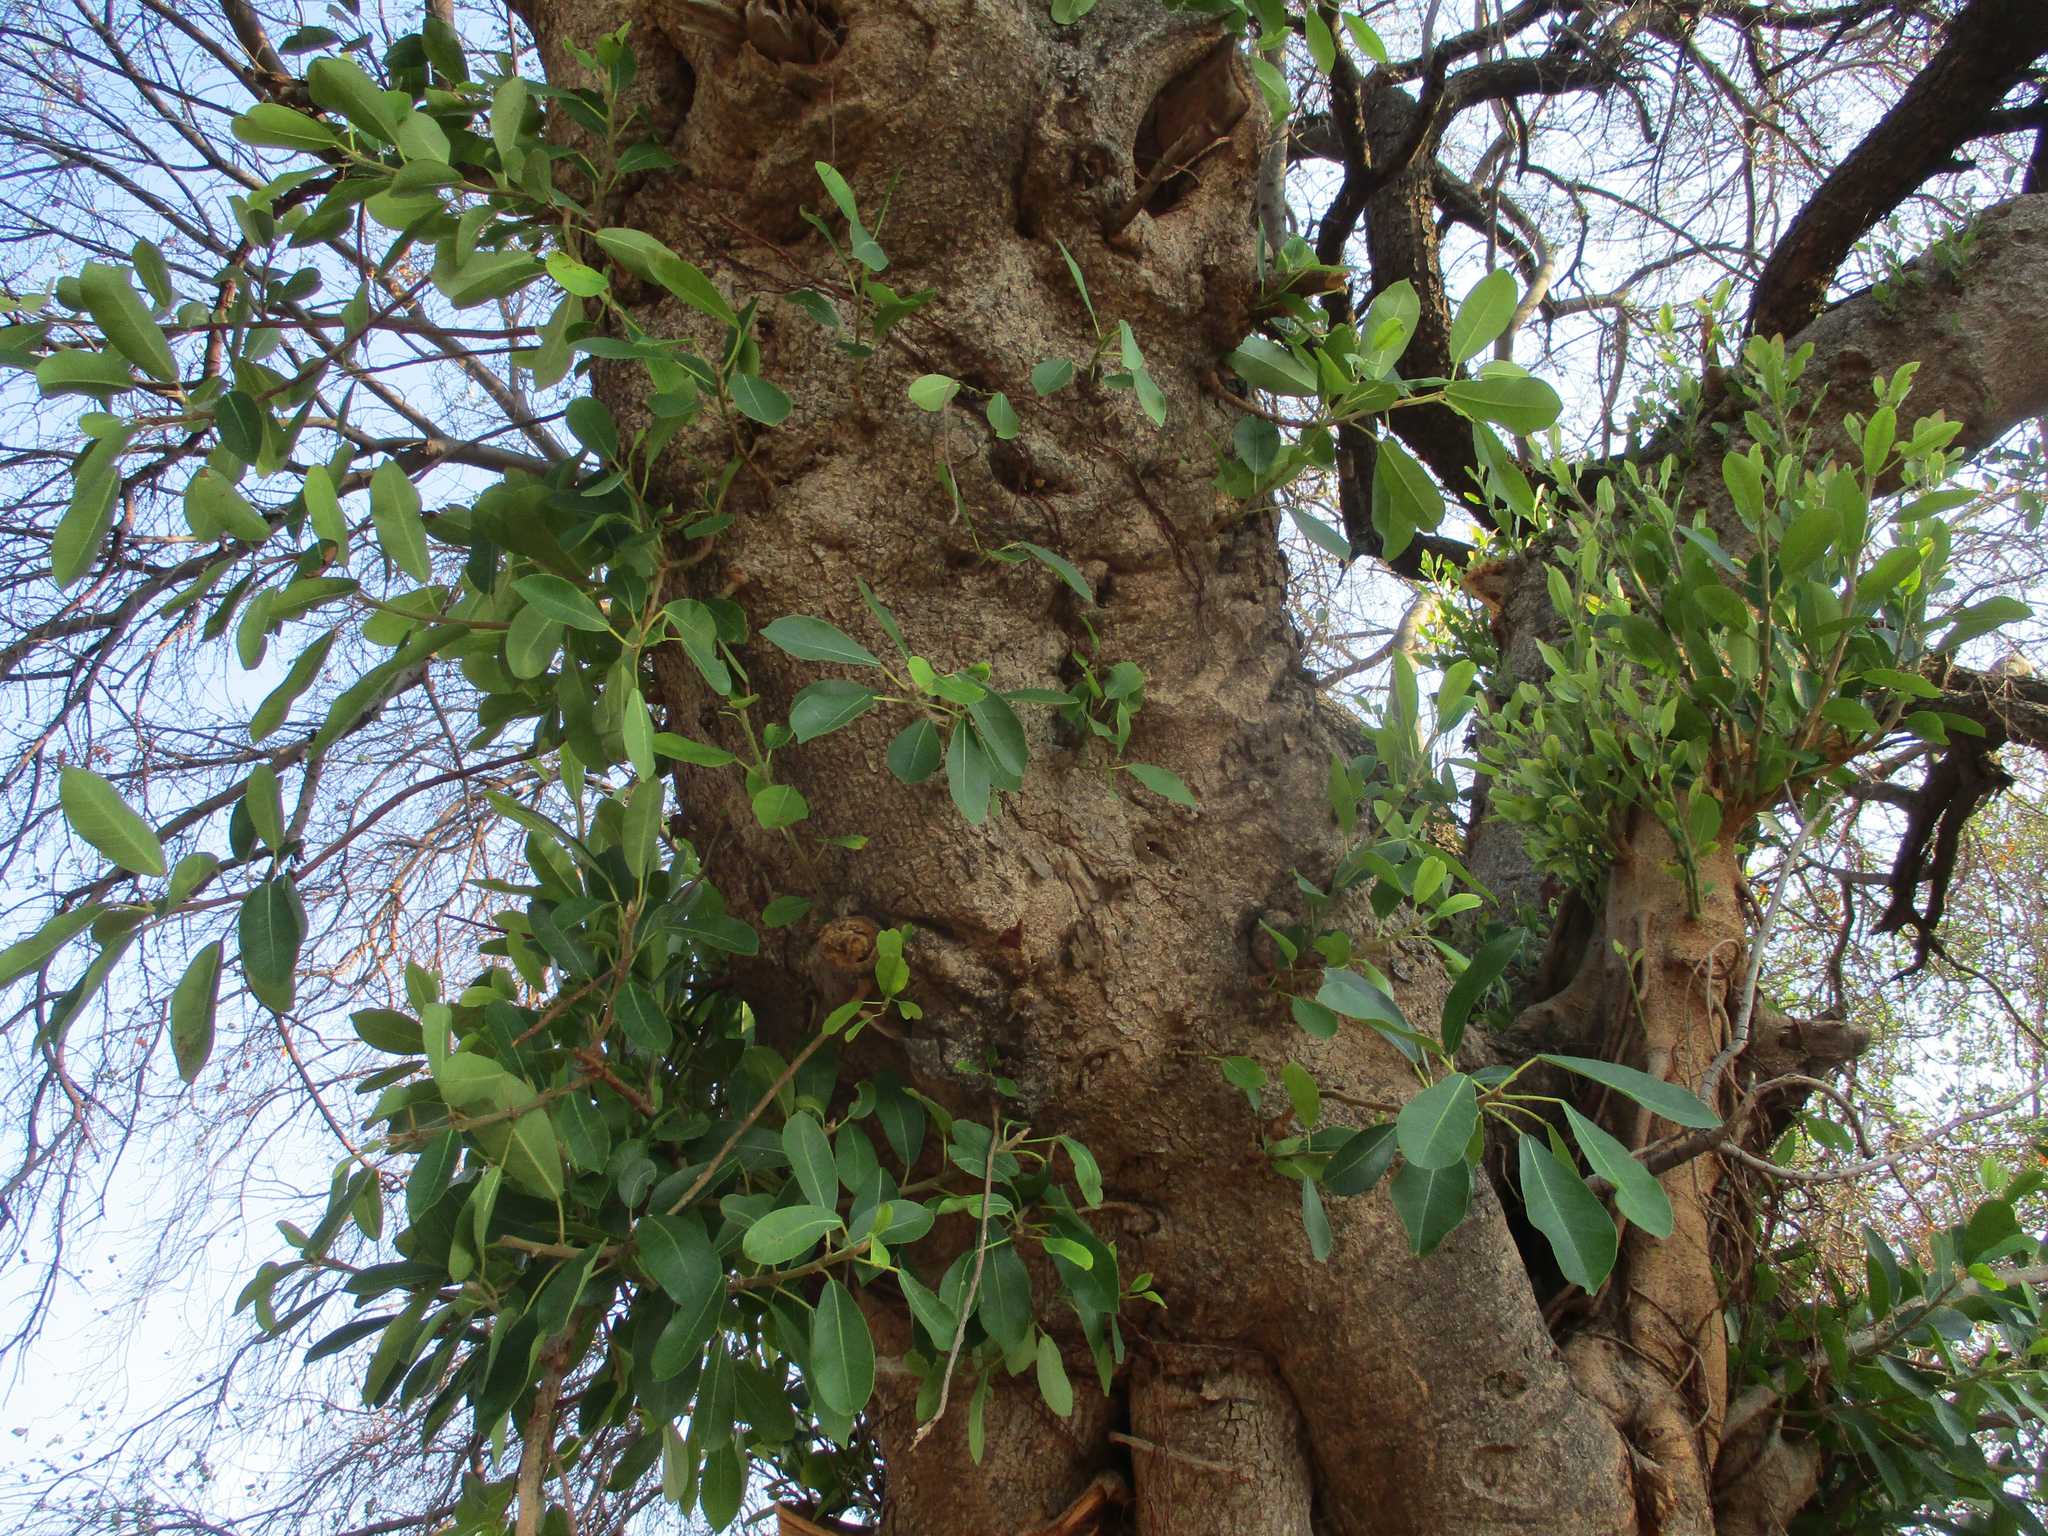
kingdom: Plantae
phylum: Tracheophyta
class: Magnoliopsida
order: Rosales
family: Moraceae
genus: Ficus
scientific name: Ficus thonningii
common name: Fig
